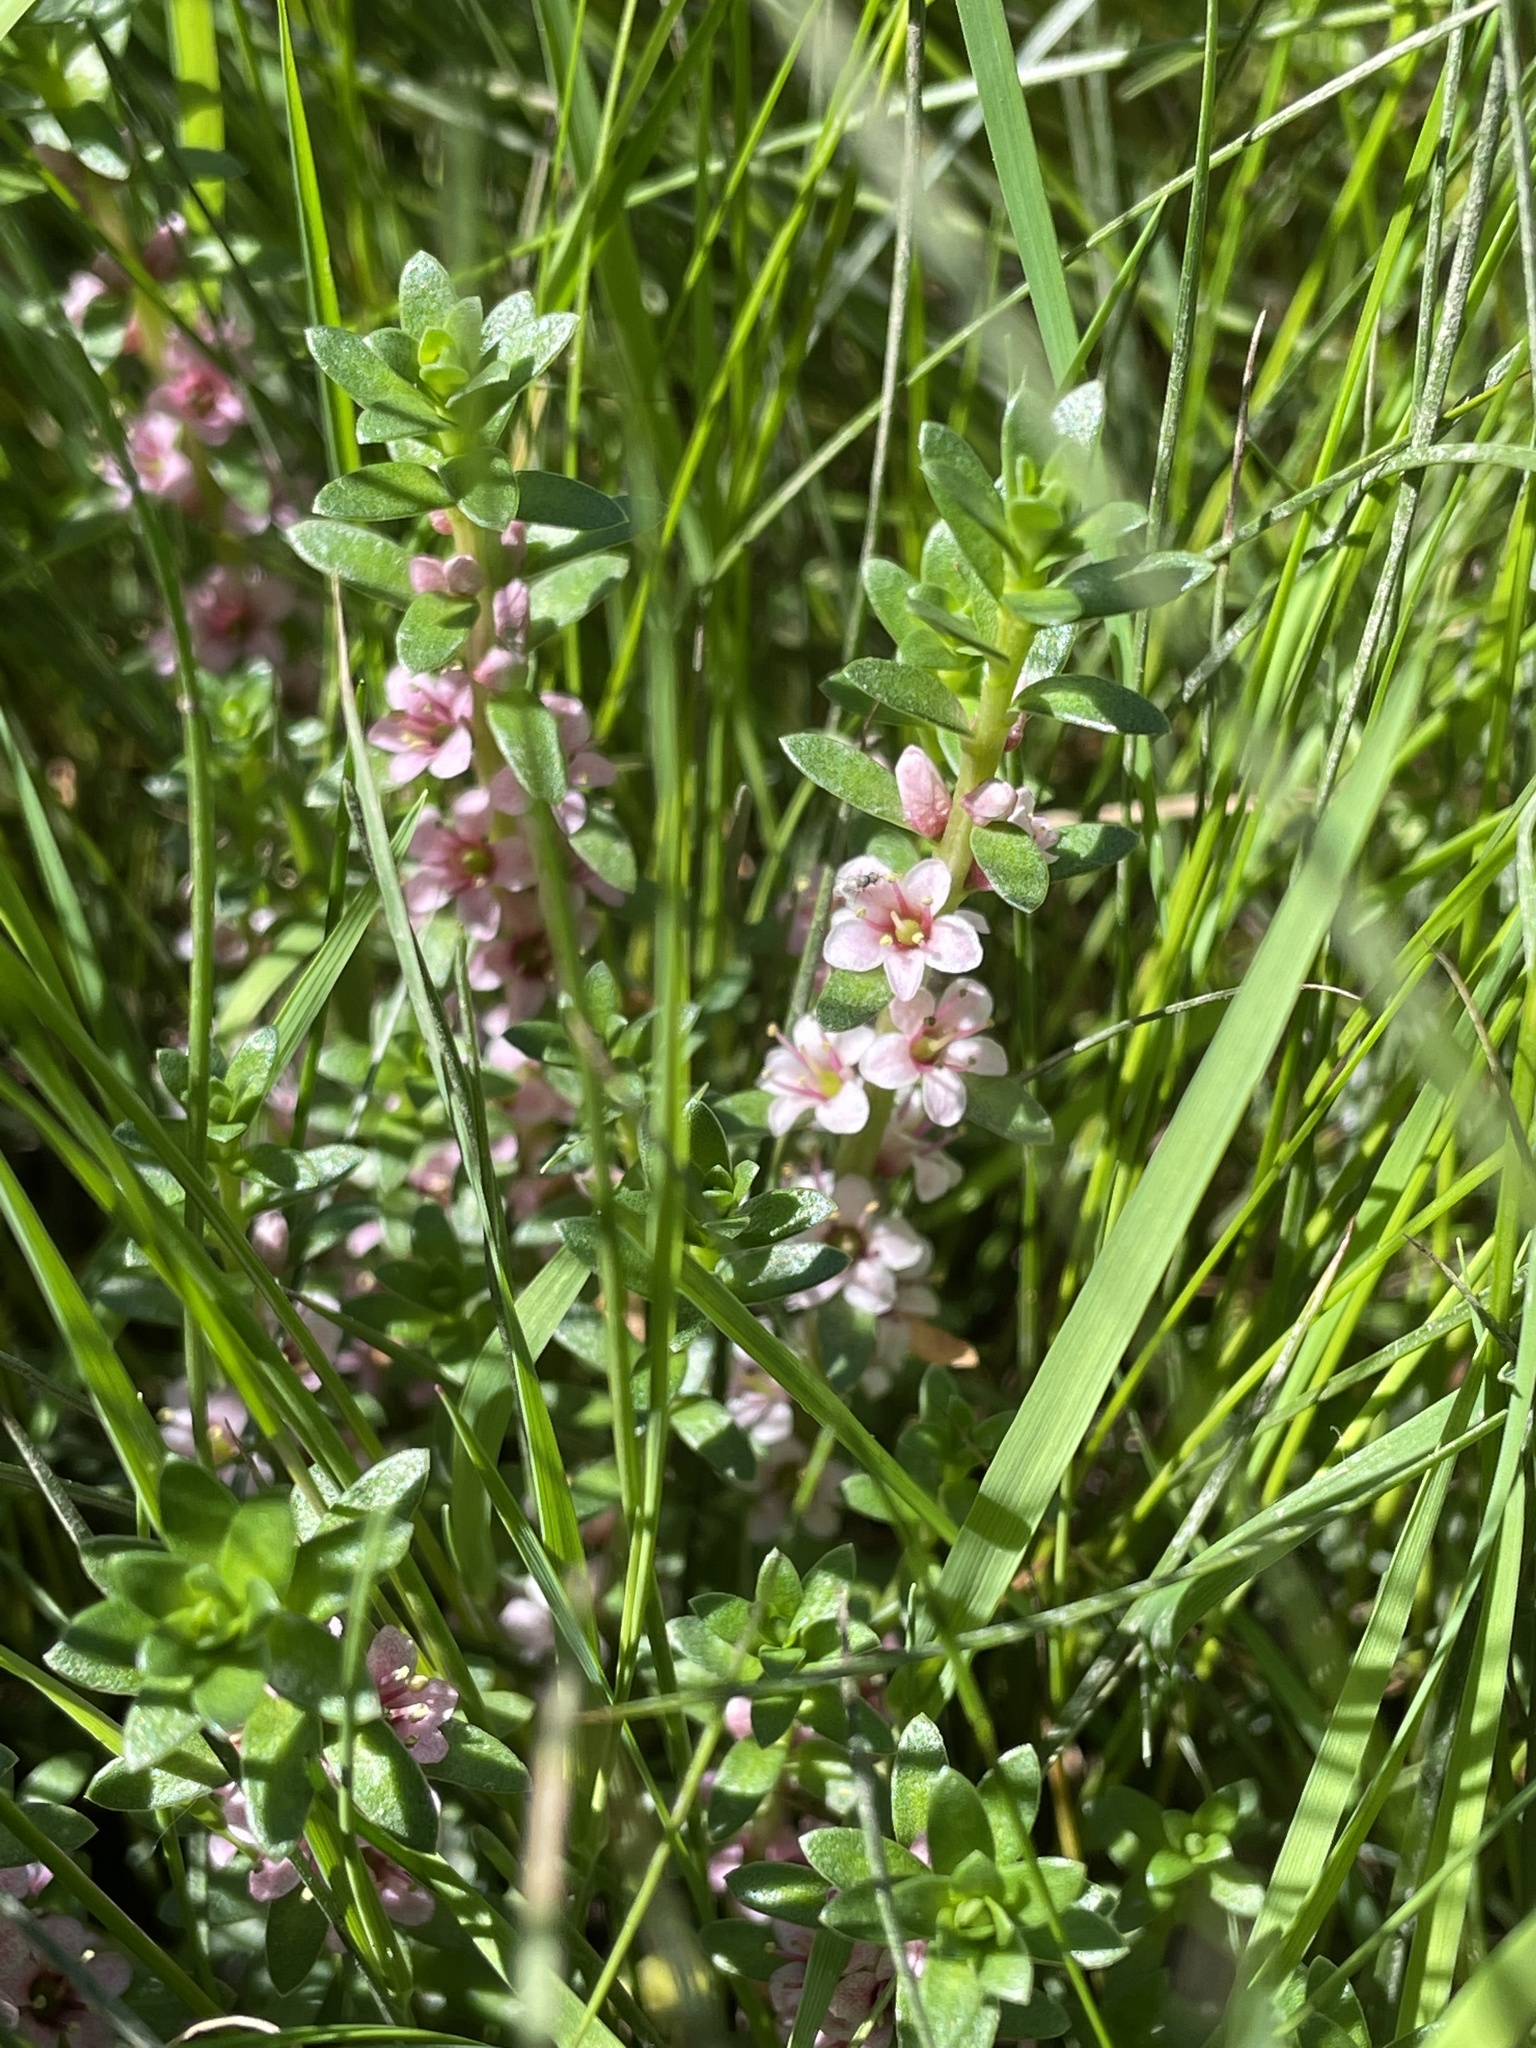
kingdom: Plantae
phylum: Tracheophyta
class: Magnoliopsida
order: Ericales
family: Primulaceae
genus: Lysimachia
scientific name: Lysimachia maritima
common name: Sea milkwort
